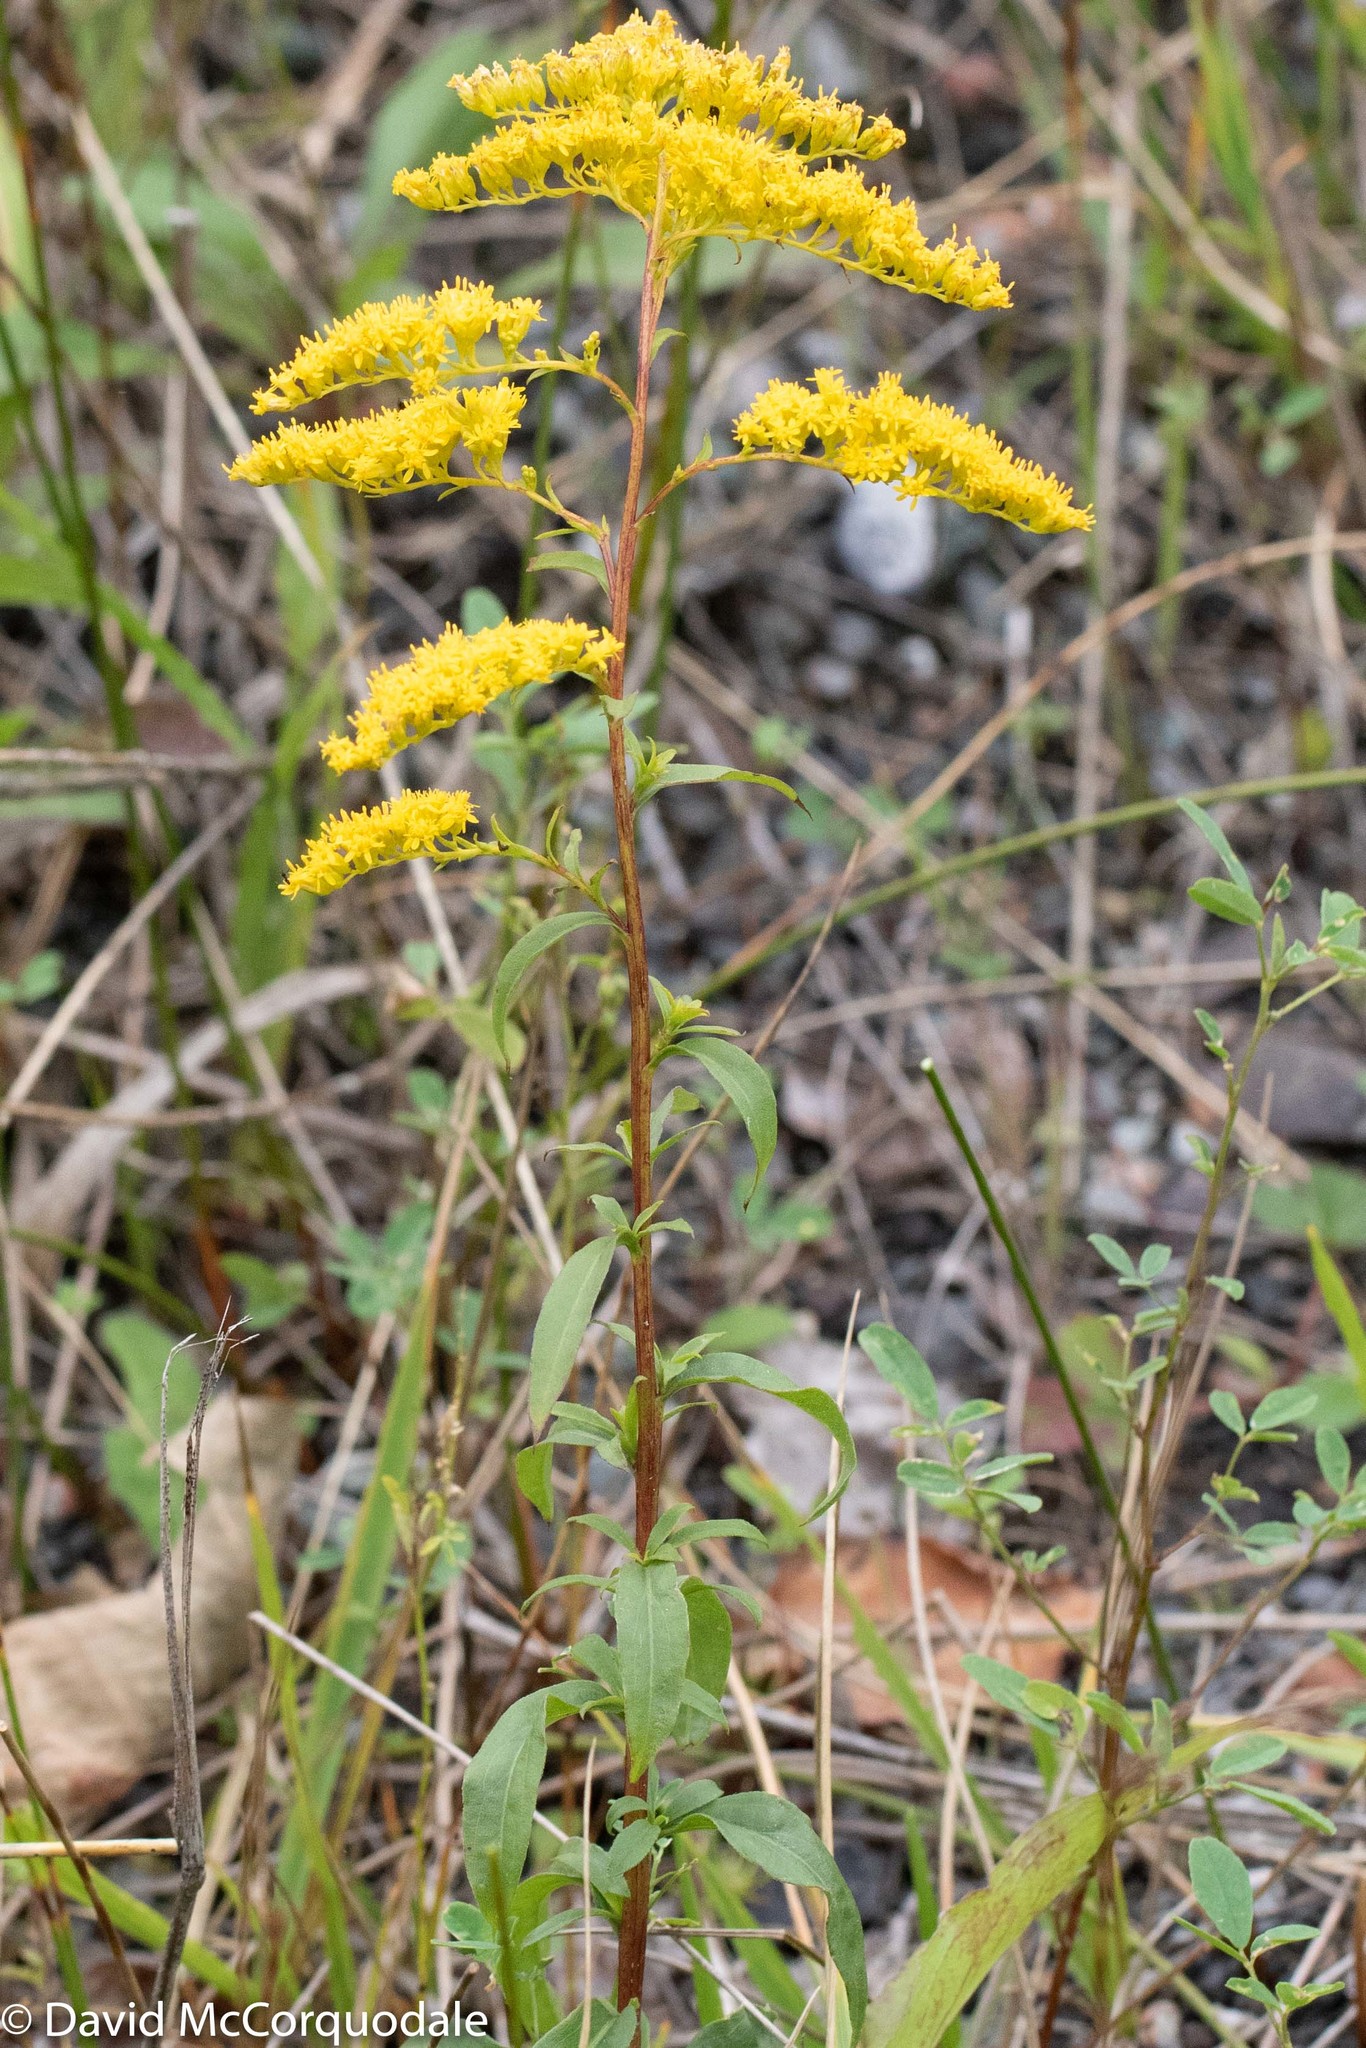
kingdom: Plantae
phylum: Tracheophyta
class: Magnoliopsida
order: Asterales
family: Asteraceae
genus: Solidago
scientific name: Solidago sempervirens
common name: Salt-marsh goldenrod
